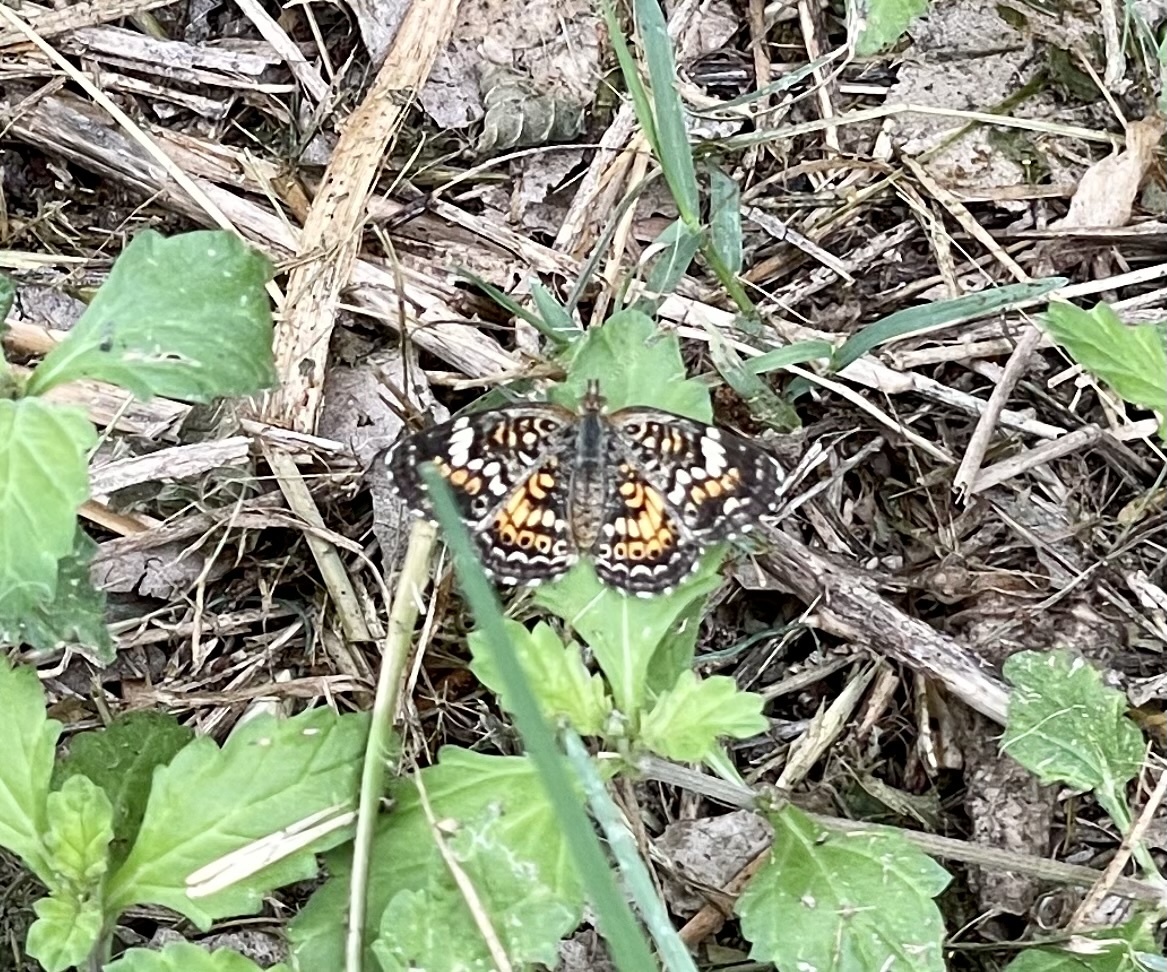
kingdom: Animalia
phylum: Arthropoda
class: Insecta
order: Lepidoptera
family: Nymphalidae
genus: Phyciodes
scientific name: Phyciodes phaon
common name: Phaon crescent
